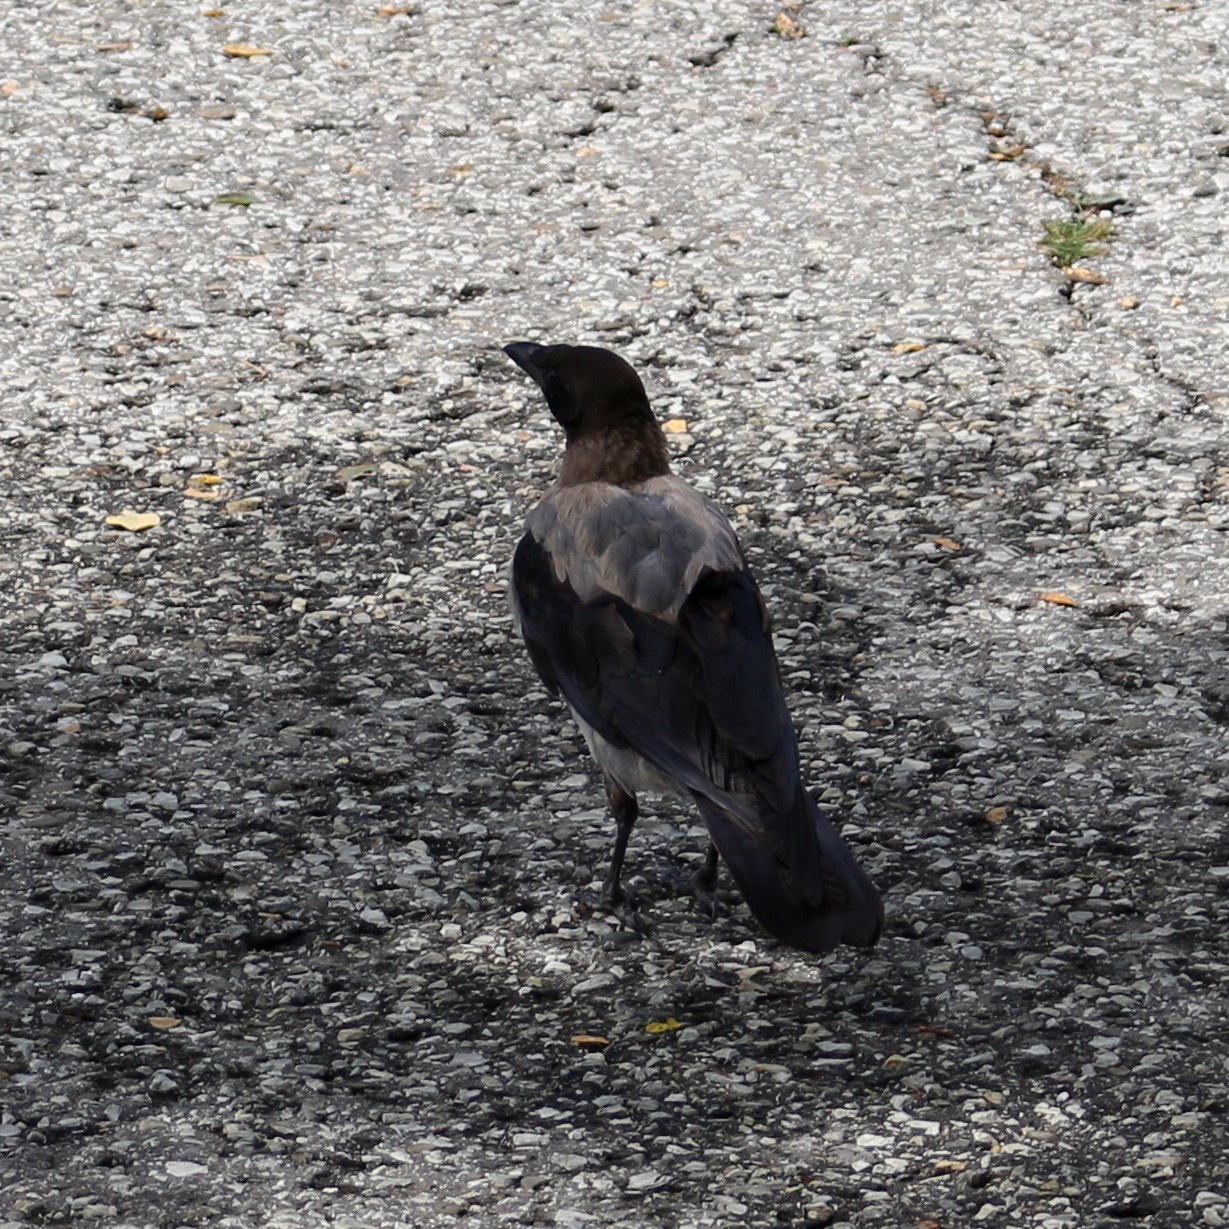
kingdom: Animalia
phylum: Chordata
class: Aves
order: Passeriformes
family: Corvidae
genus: Corvus
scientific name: Corvus cornix
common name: Hooded crow
